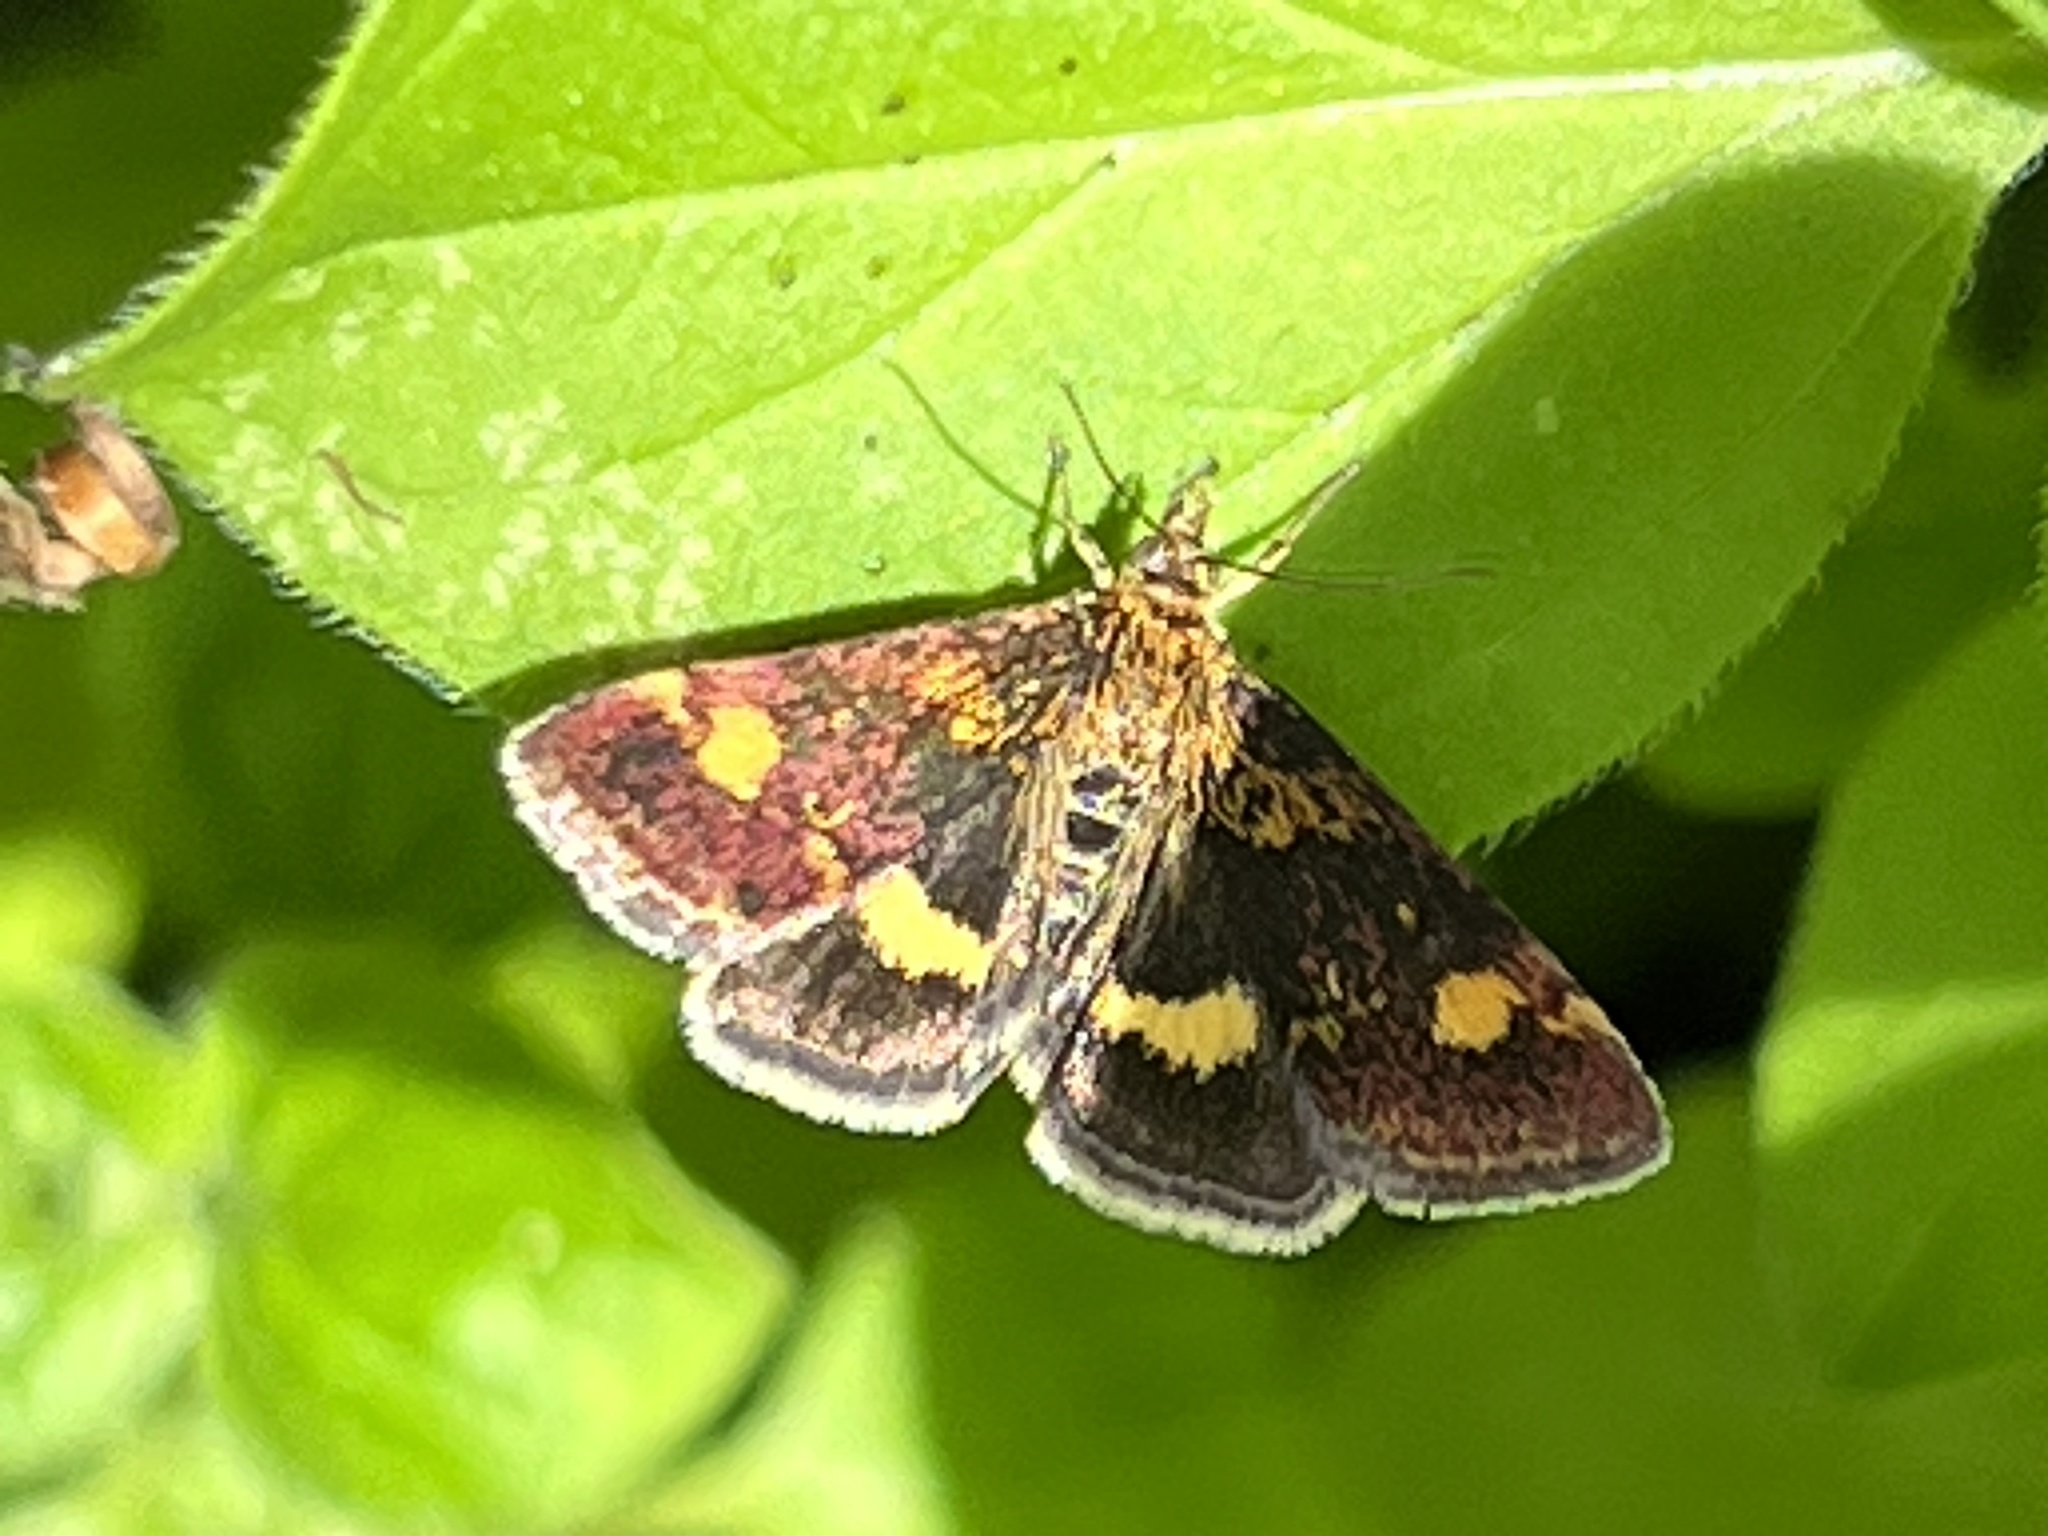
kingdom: Animalia
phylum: Arthropoda
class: Insecta
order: Lepidoptera
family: Crambidae
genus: Pyrausta
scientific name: Pyrausta aurata
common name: Small purple & gold
